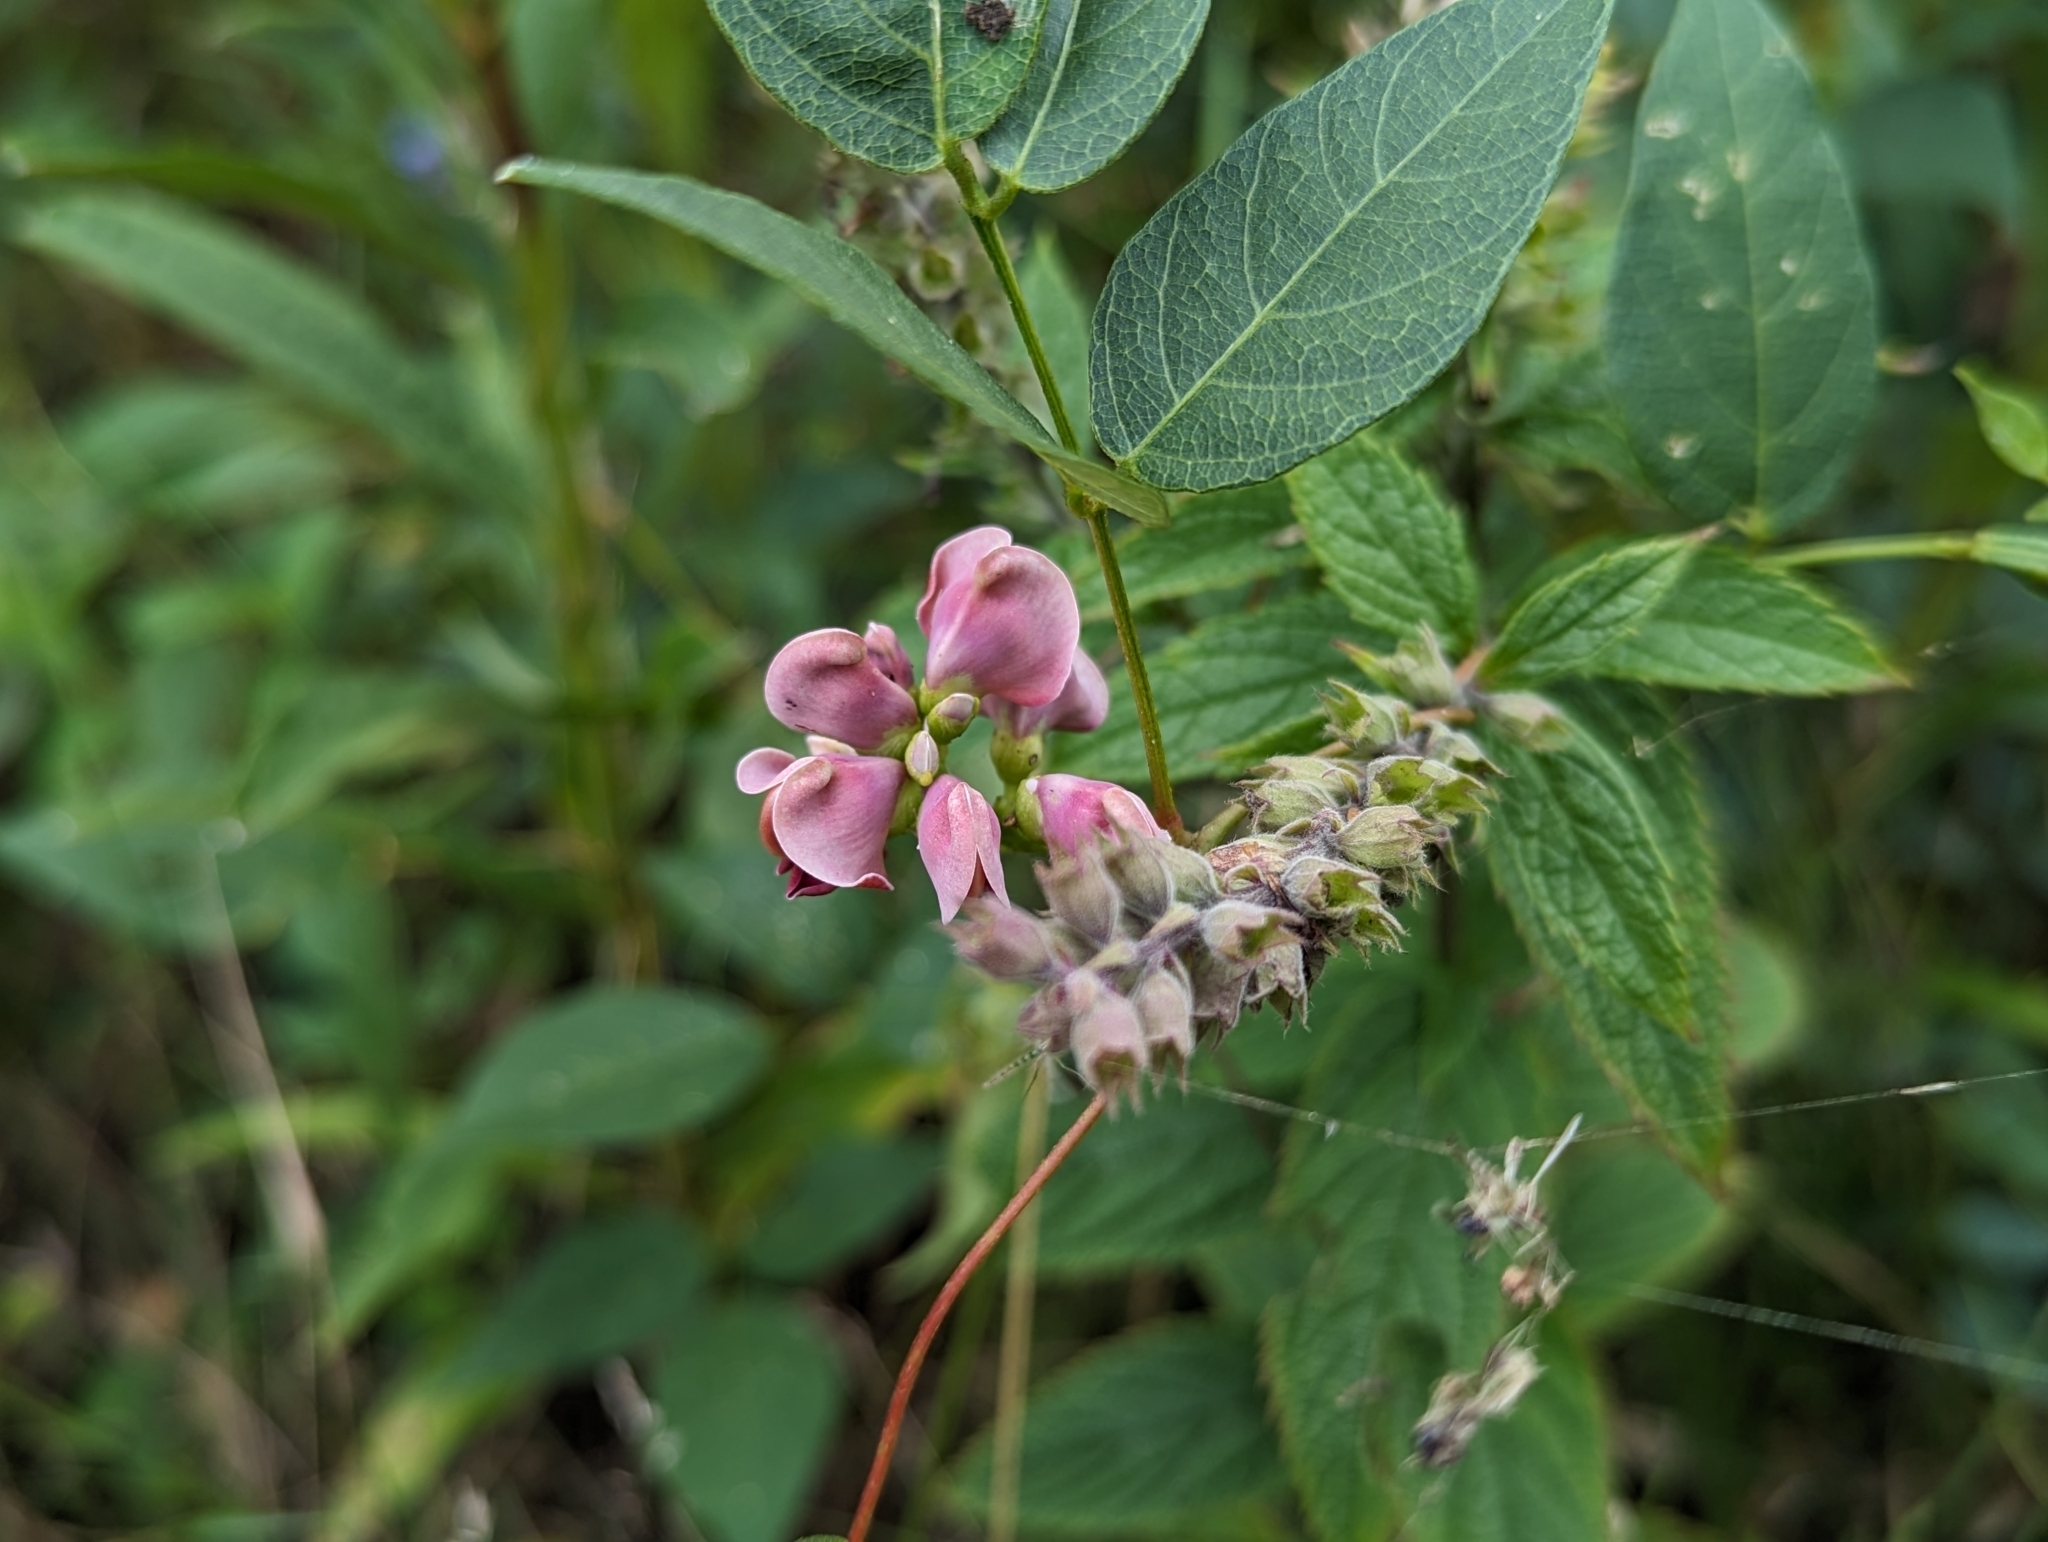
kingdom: Plantae
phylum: Tracheophyta
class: Magnoliopsida
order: Fabales
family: Fabaceae
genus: Apios
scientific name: Apios americana
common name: American potato-bean
